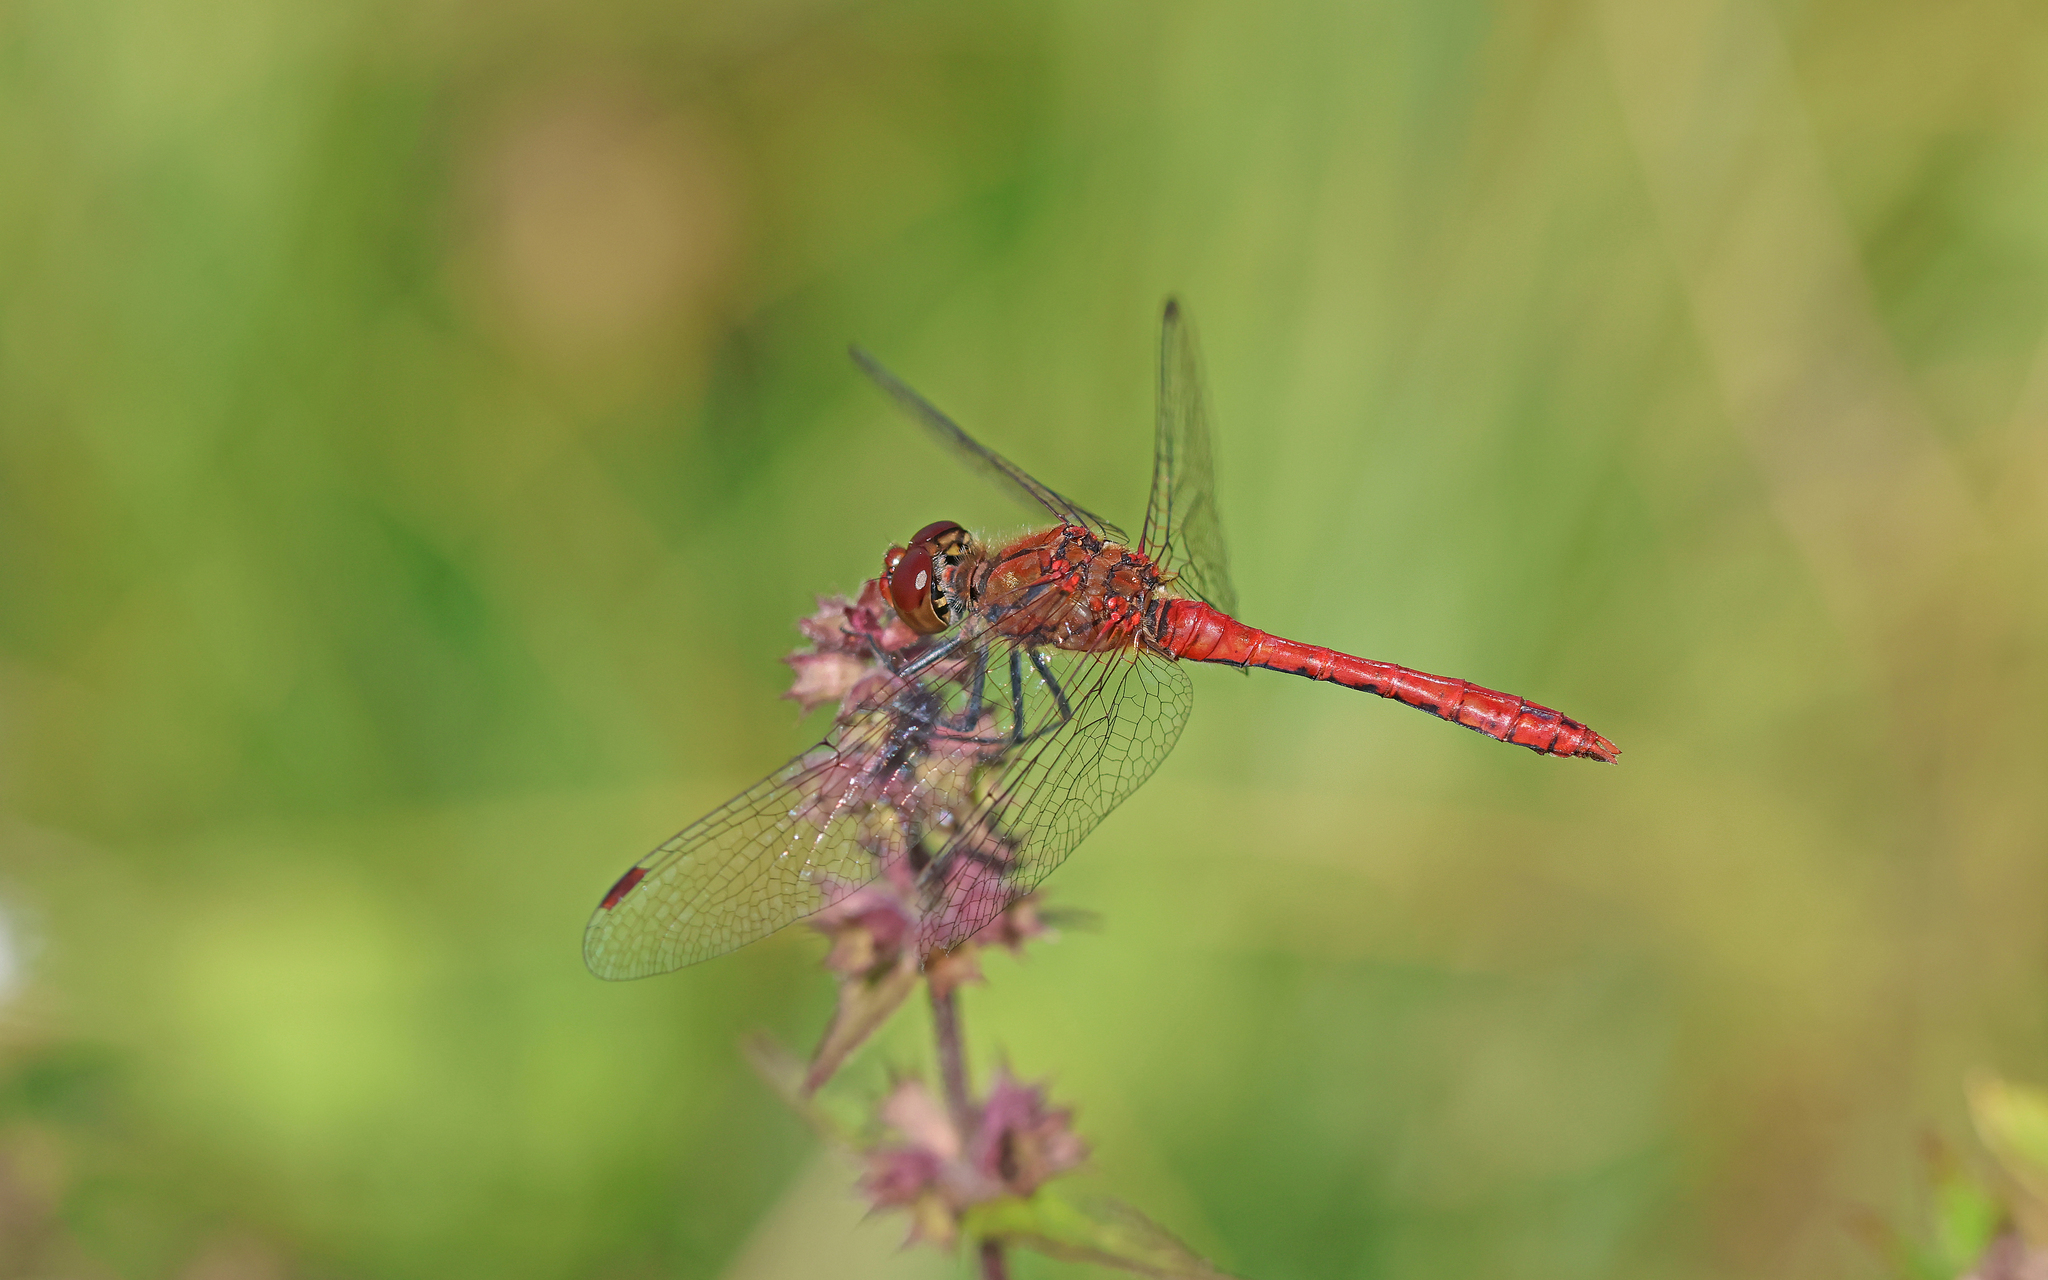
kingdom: Animalia
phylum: Arthropoda
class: Insecta
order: Odonata
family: Libellulidae
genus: Sympetrum
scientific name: Sympetrum sanguineum
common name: Ruddy darter
